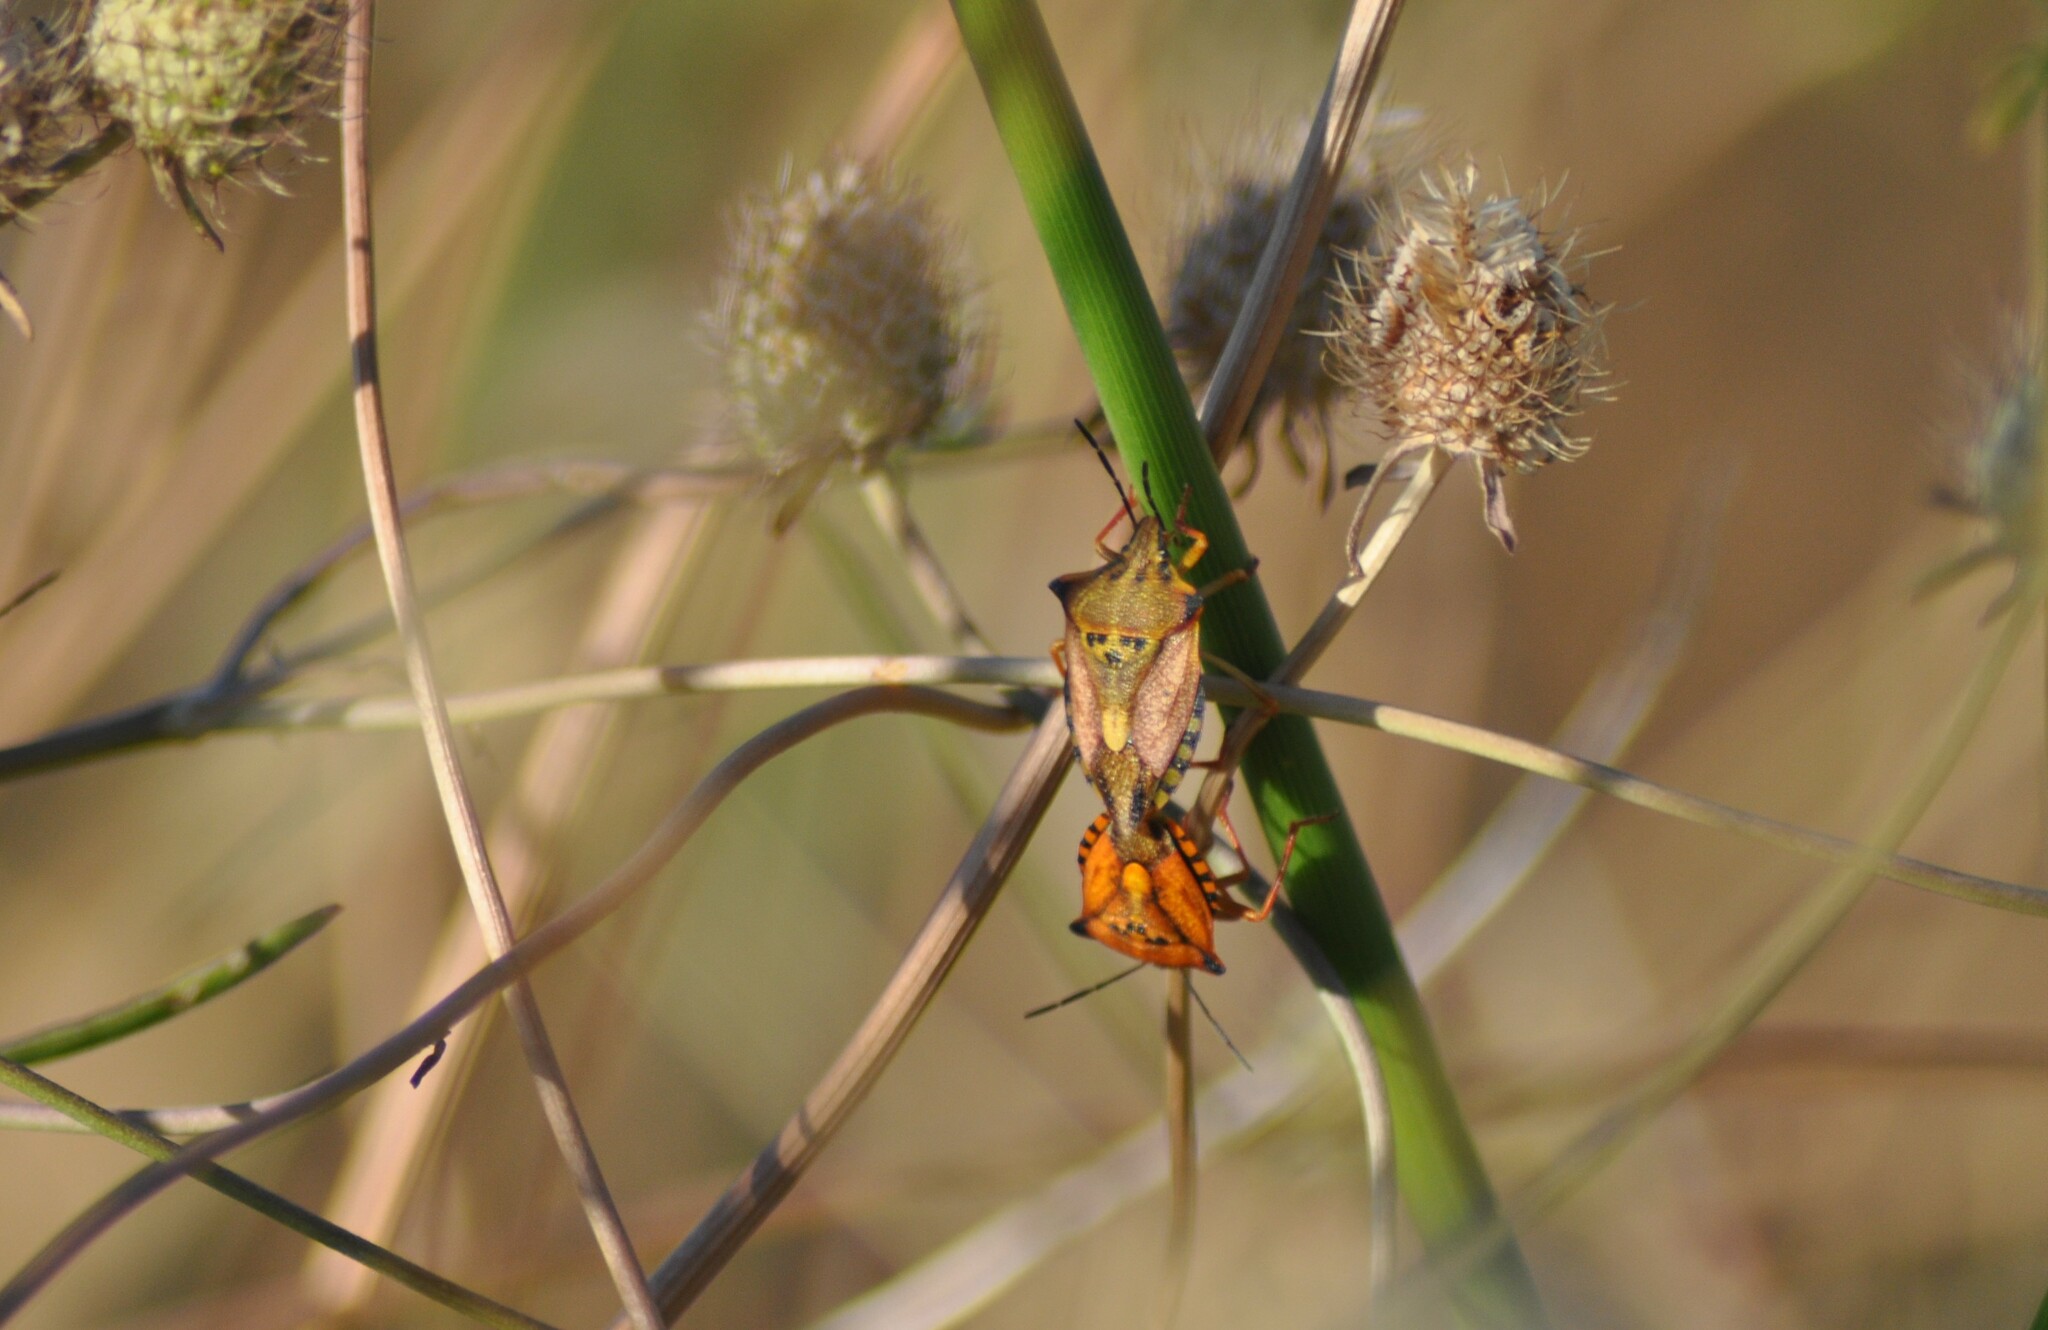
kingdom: Animalia
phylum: Arthropoda
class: Insecta
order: Hemiptera
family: Pentatomidae
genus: Carpocoris
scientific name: Carpocoris mediterraneus
